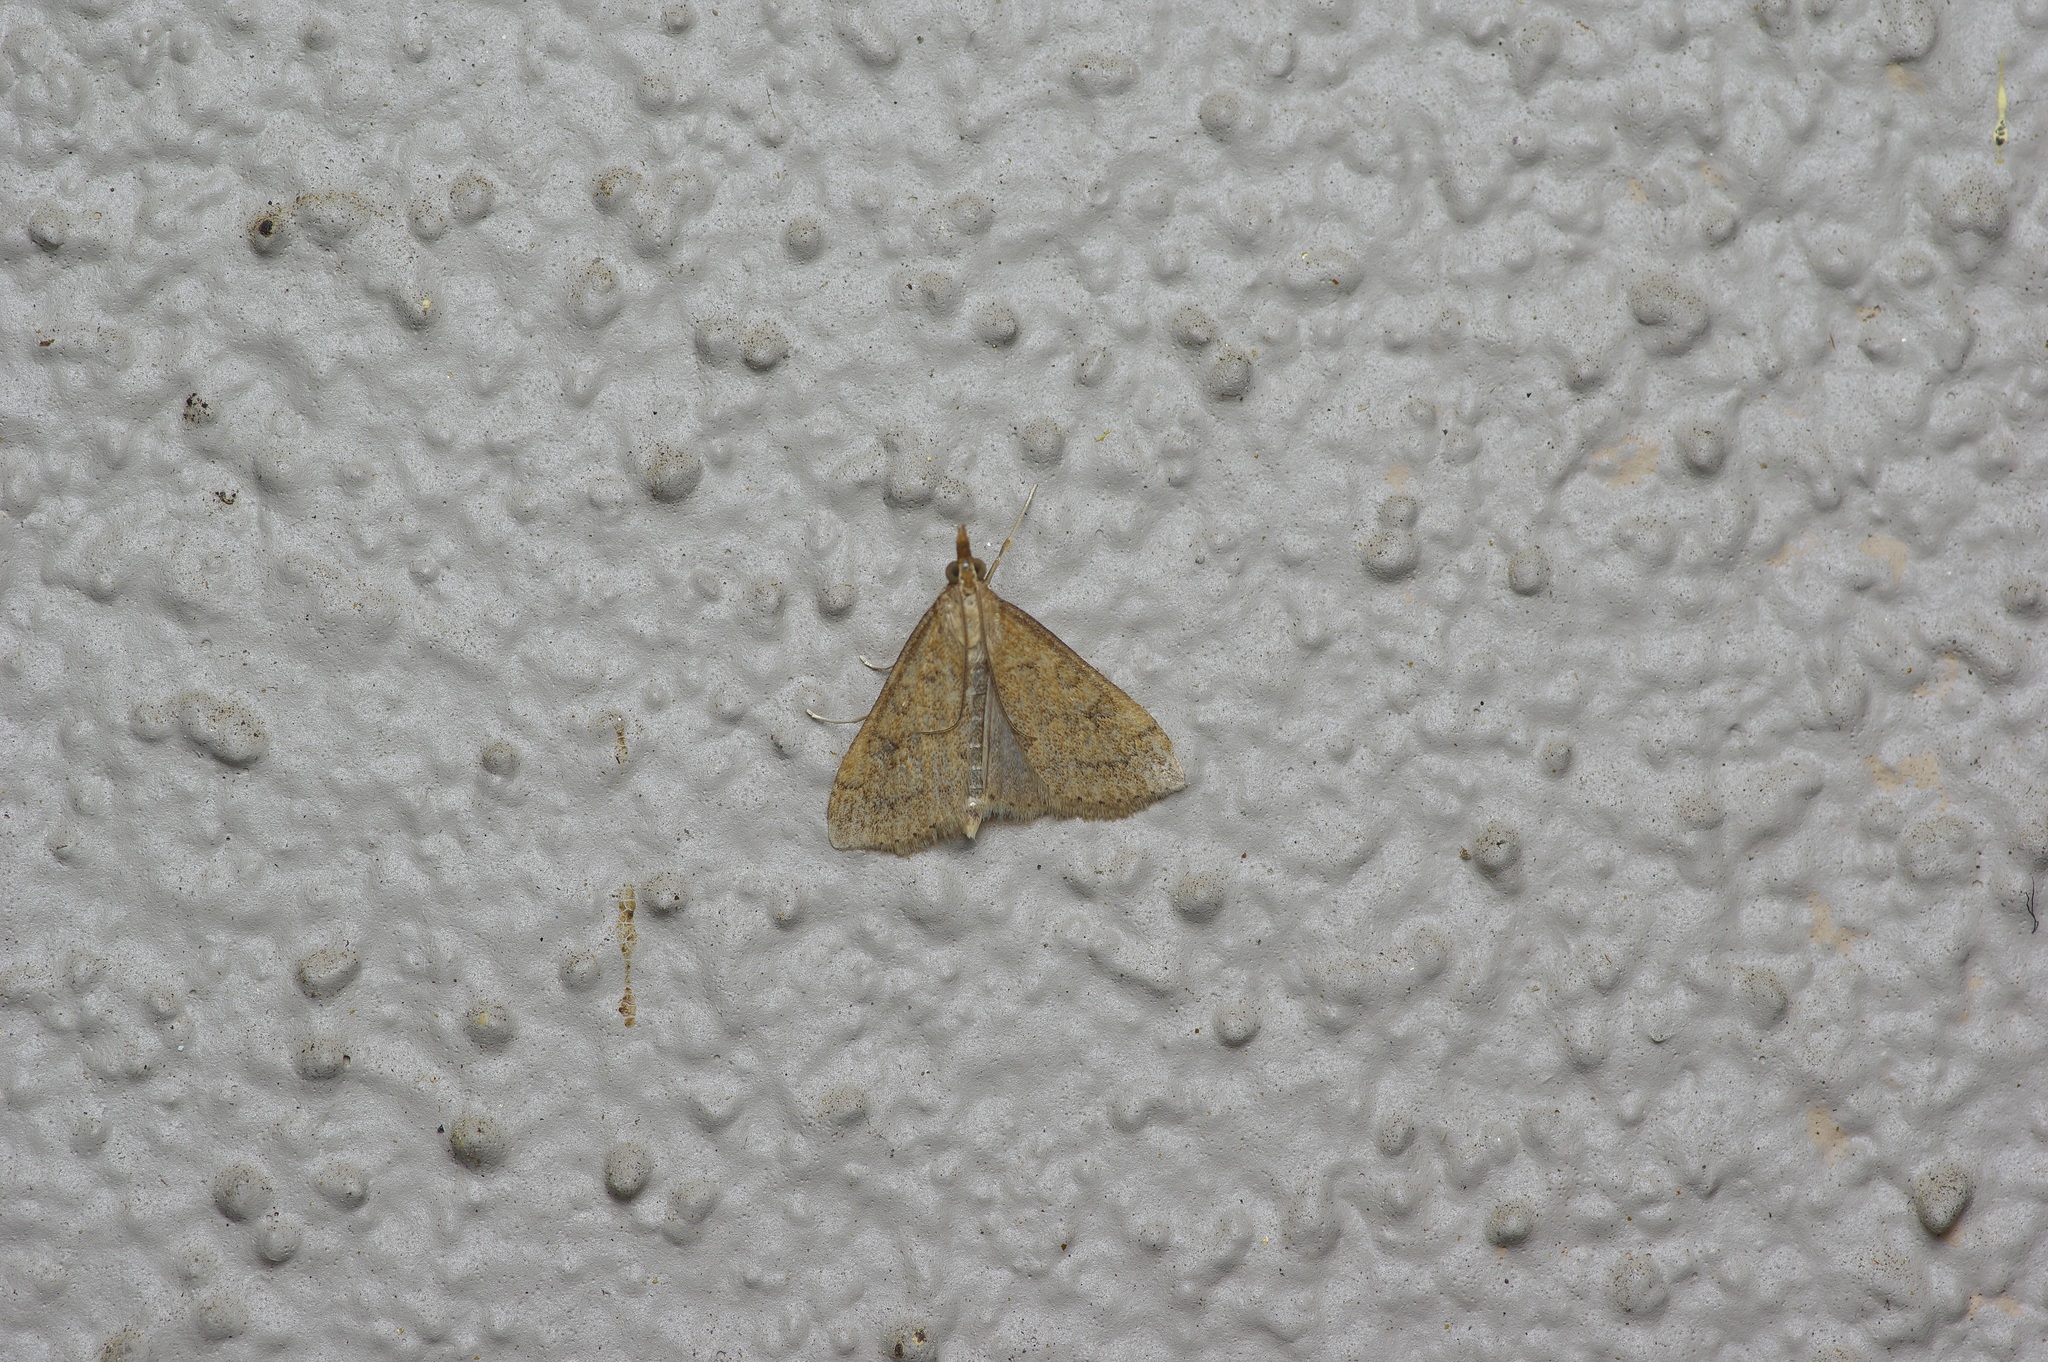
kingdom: Animalia
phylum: Arthropoda
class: Insecta
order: Lepidoptera
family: Crambidae
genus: Udea
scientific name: Udea rubigalis
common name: Celery leaftier moth
